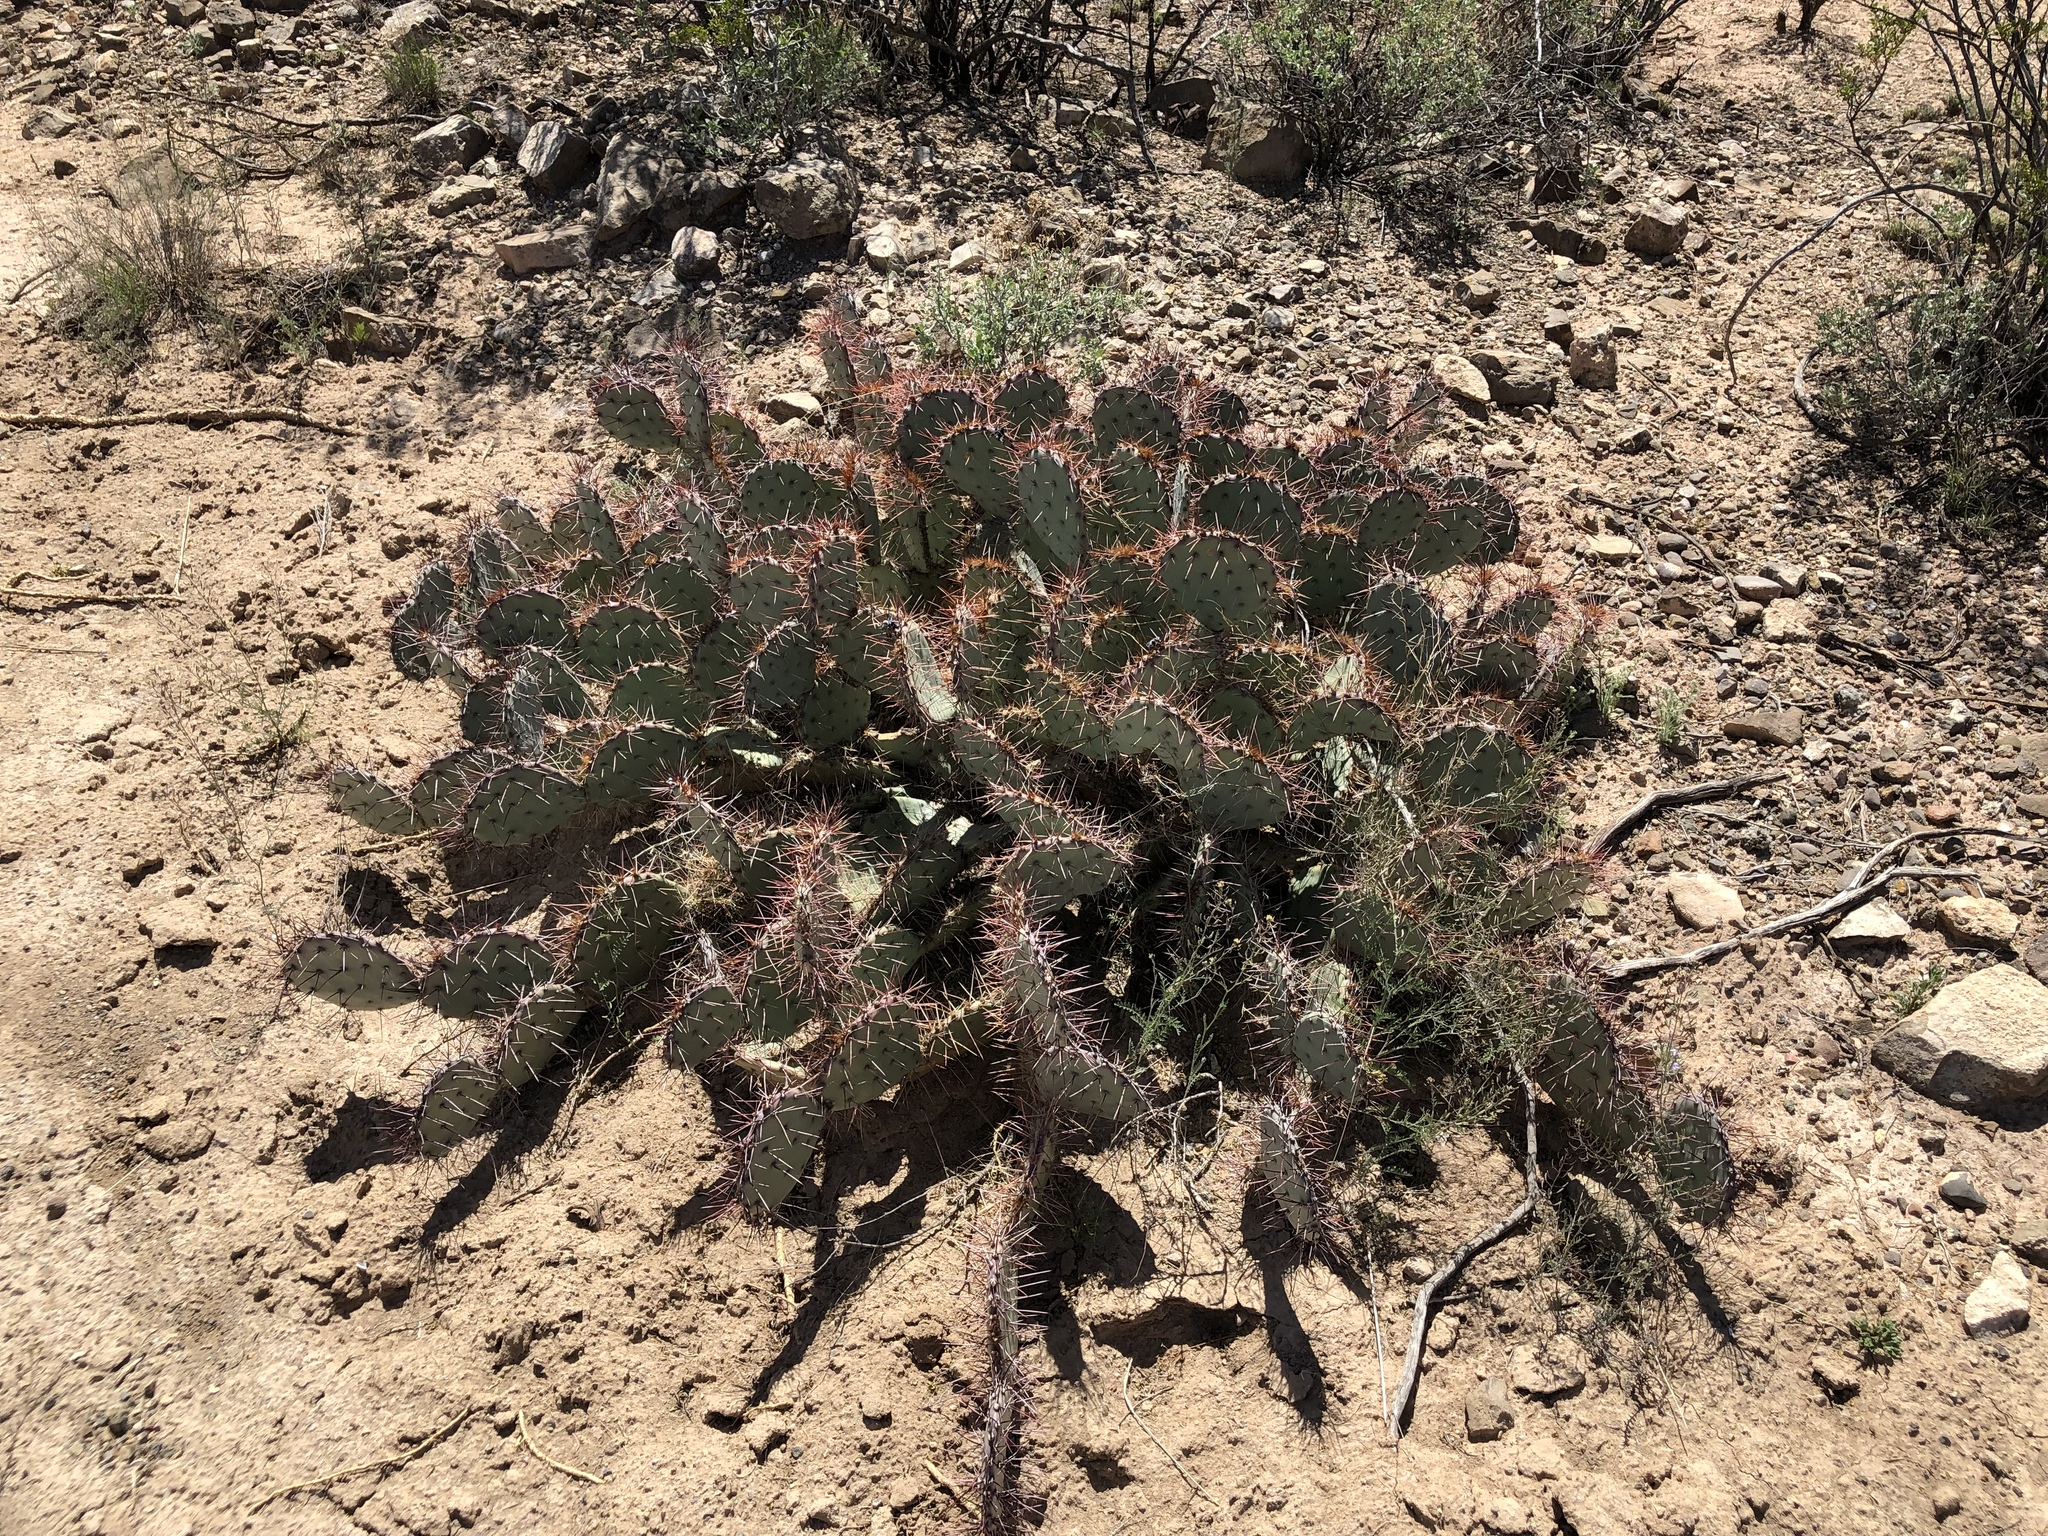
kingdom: Plantae
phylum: Tracheophyta
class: Magnoliopsida
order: Caryophyllales
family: Cactaceae
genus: Opuntia
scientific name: Opuntia macrocentra
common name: Purple prickly-pear
